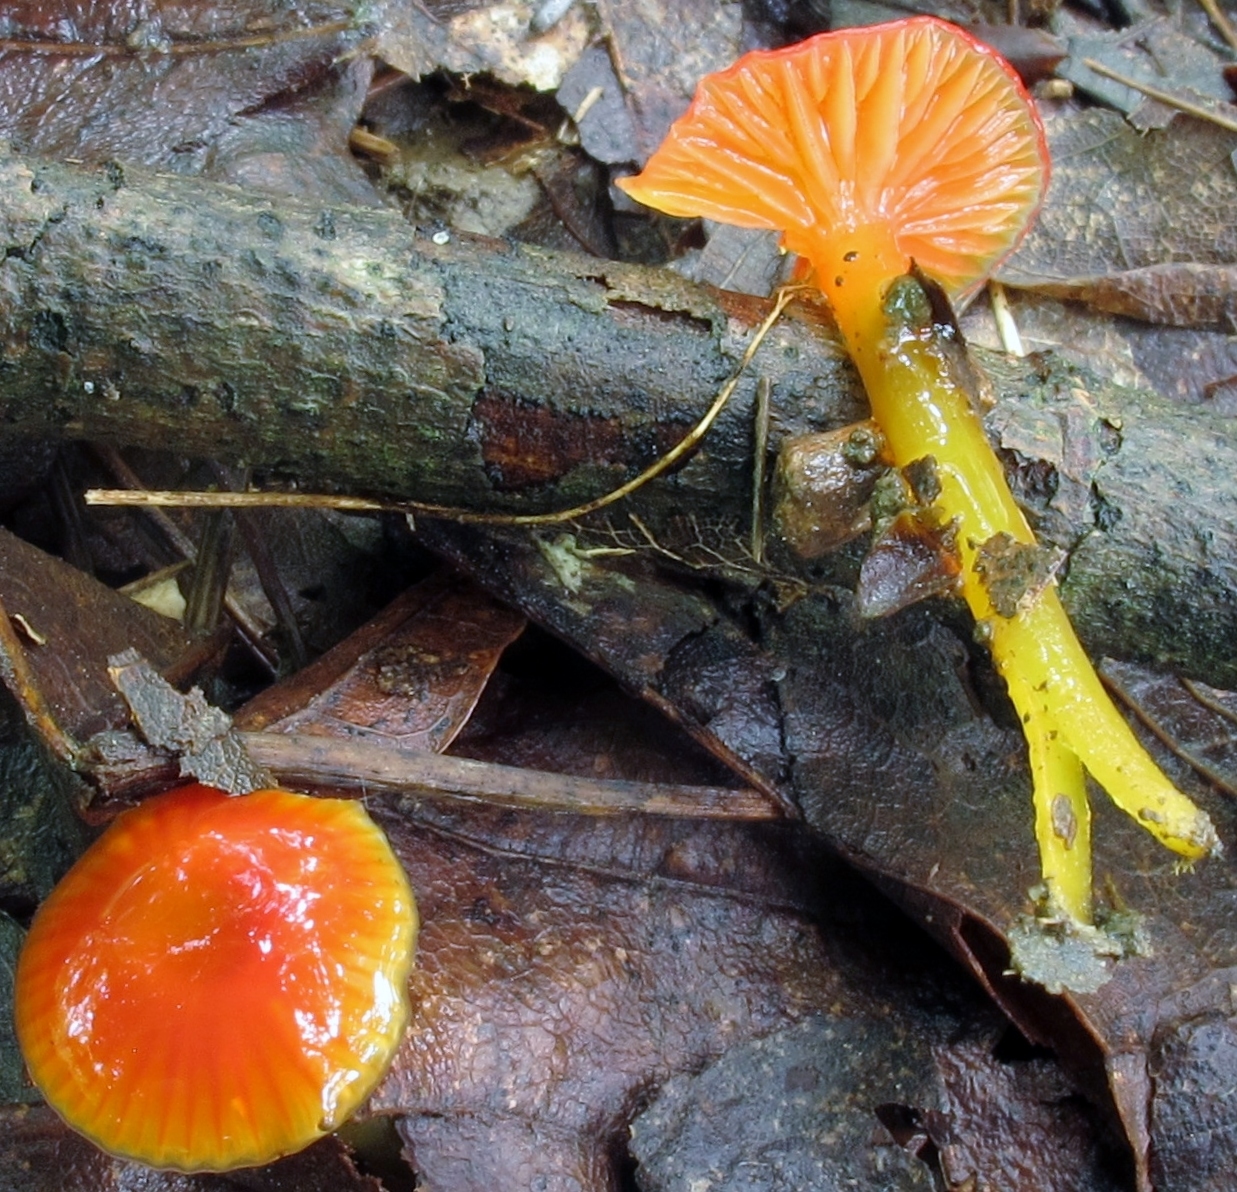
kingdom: Fungi
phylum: Basidiomycota
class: Agaricomycetes
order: Agaricales
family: Hygrophoraceae
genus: Hygrocybe
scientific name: Hygrocybe minutula
